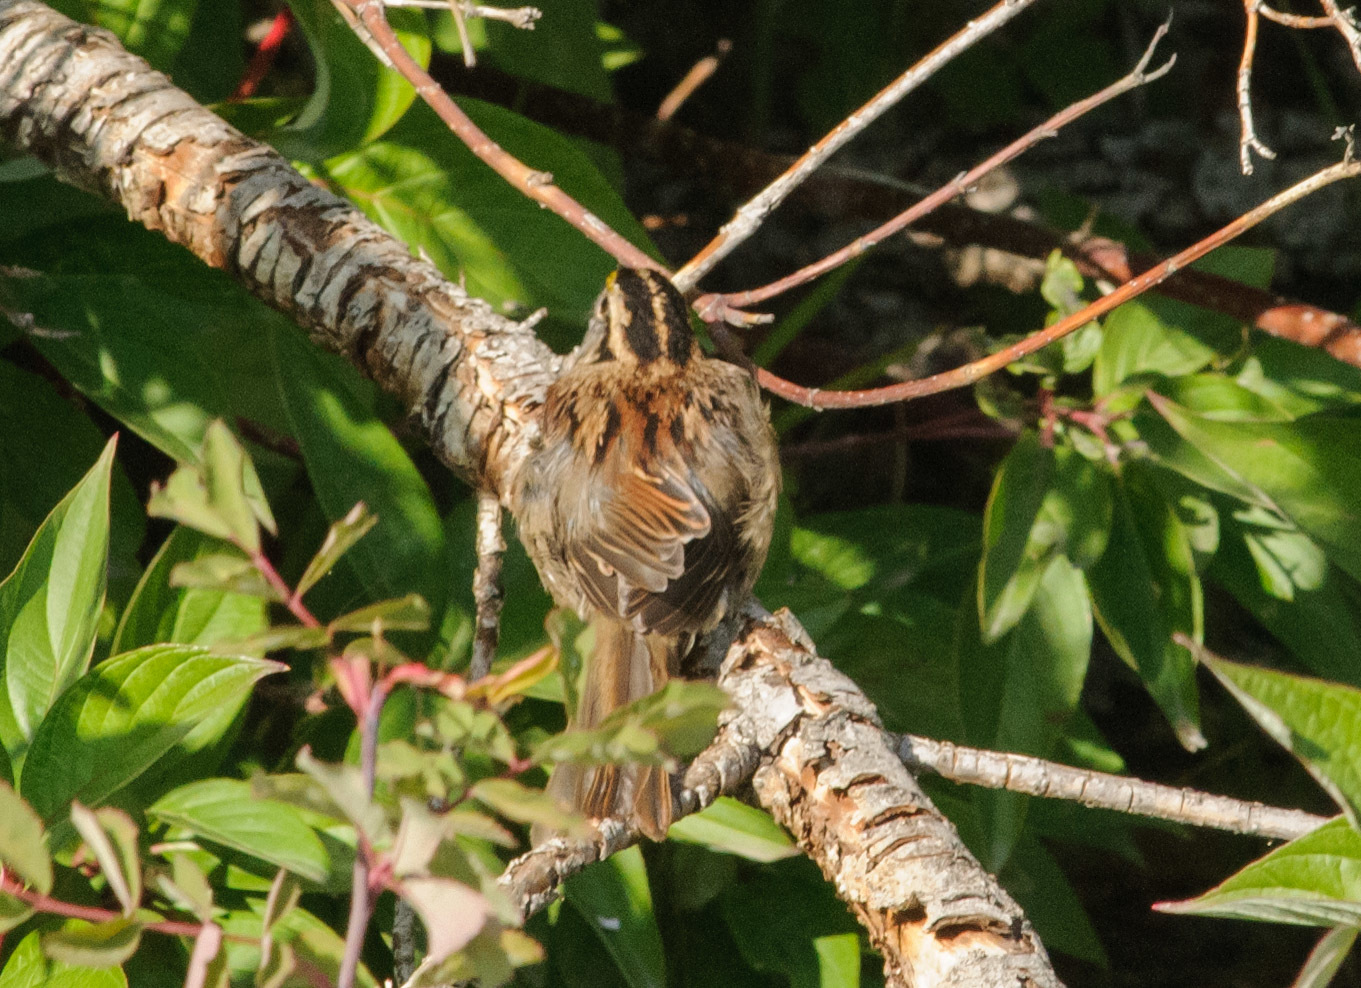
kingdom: Animalia
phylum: Chordata
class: Aves
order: Passeriformes
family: Passerellidae
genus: Zonotrichia
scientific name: Zonotrichia albicollis
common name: White-throated sparrow
